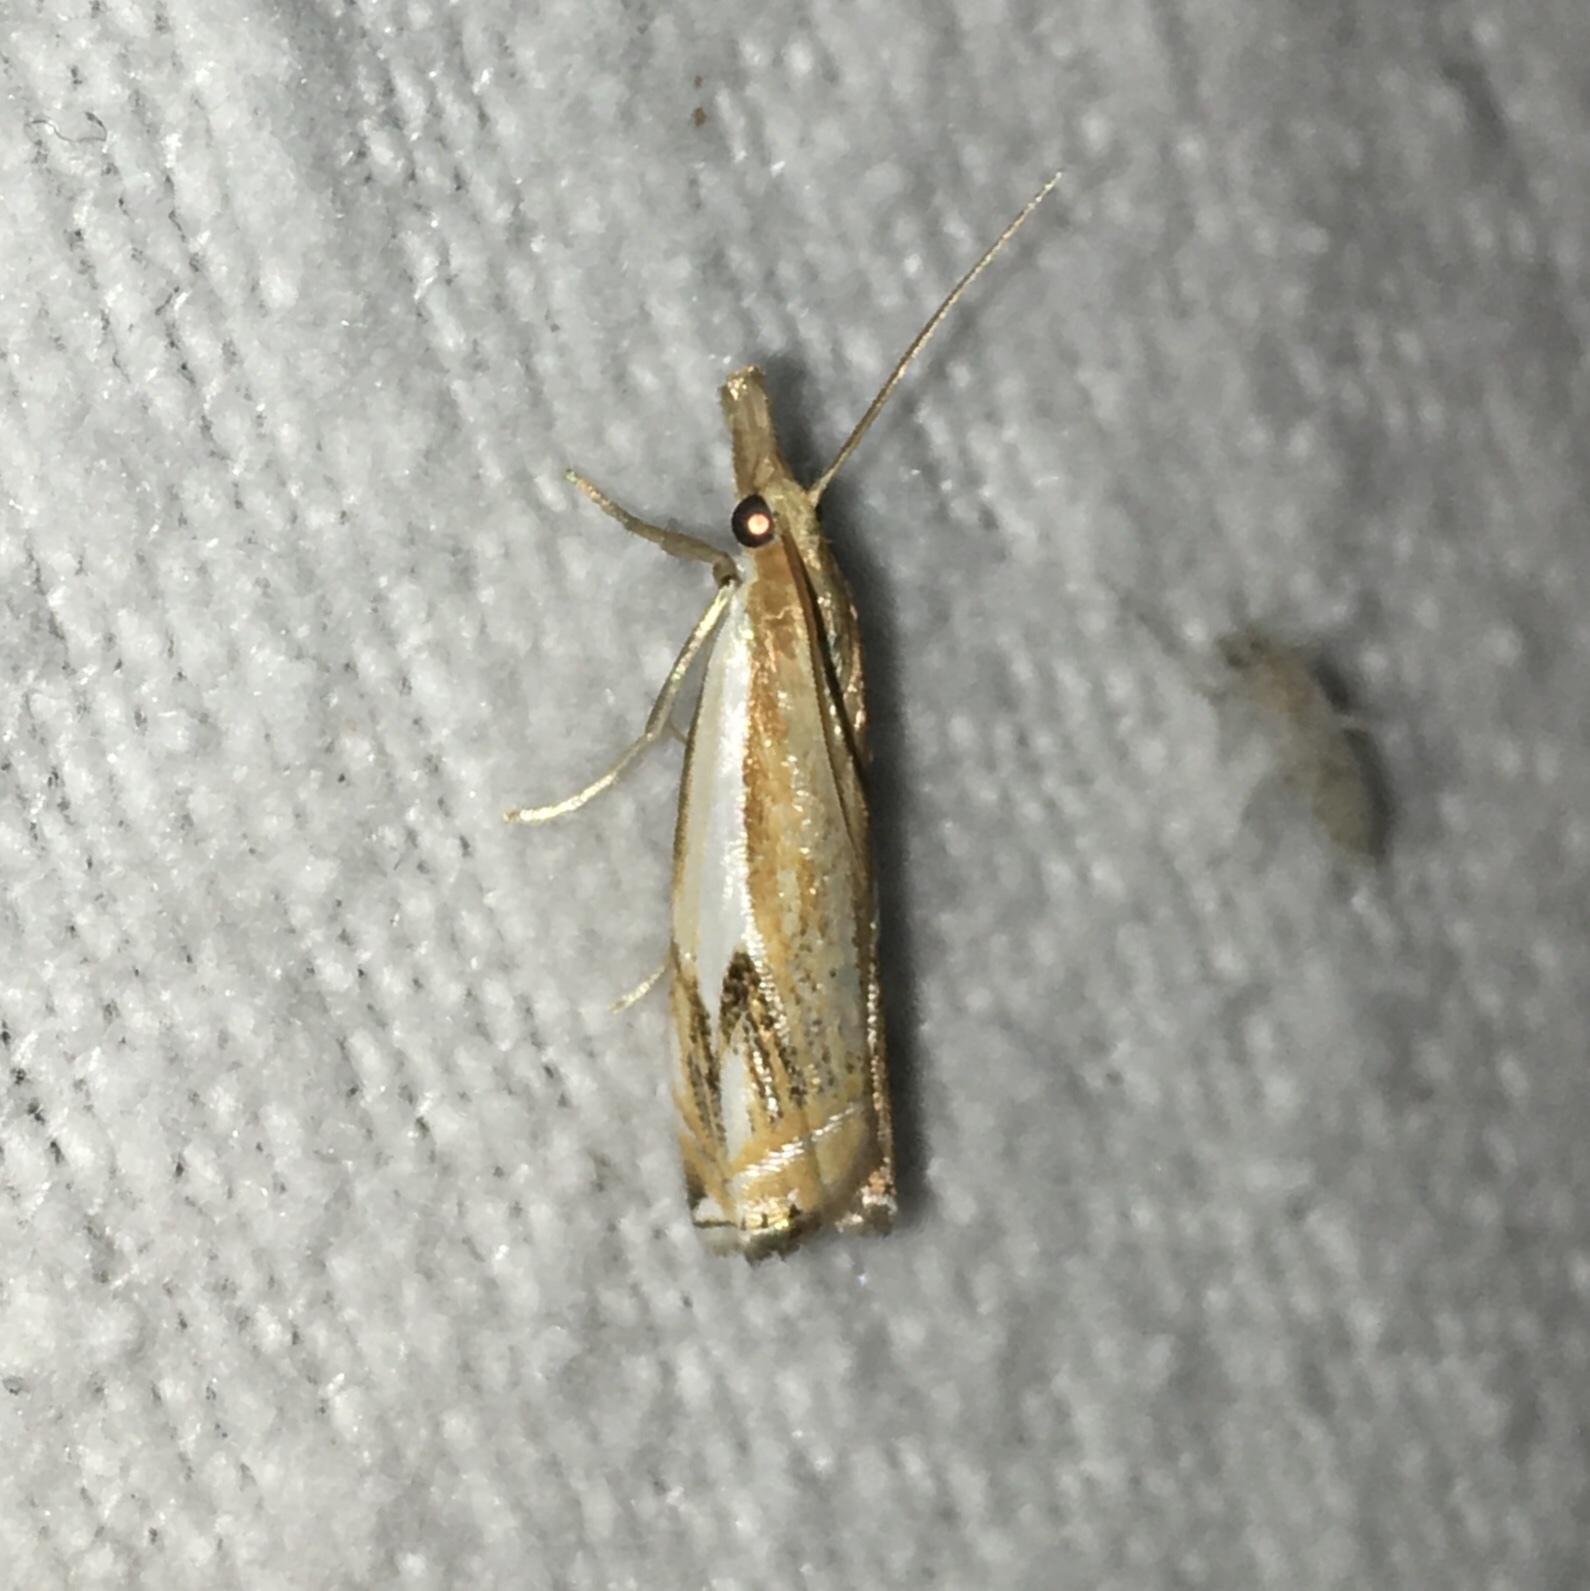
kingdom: Animalia
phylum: Arthropoda
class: Insecta
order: Lepidoptera
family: Crambidae
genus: Crambus
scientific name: Crambus agitatellus
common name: Double-banded grass-veneer
